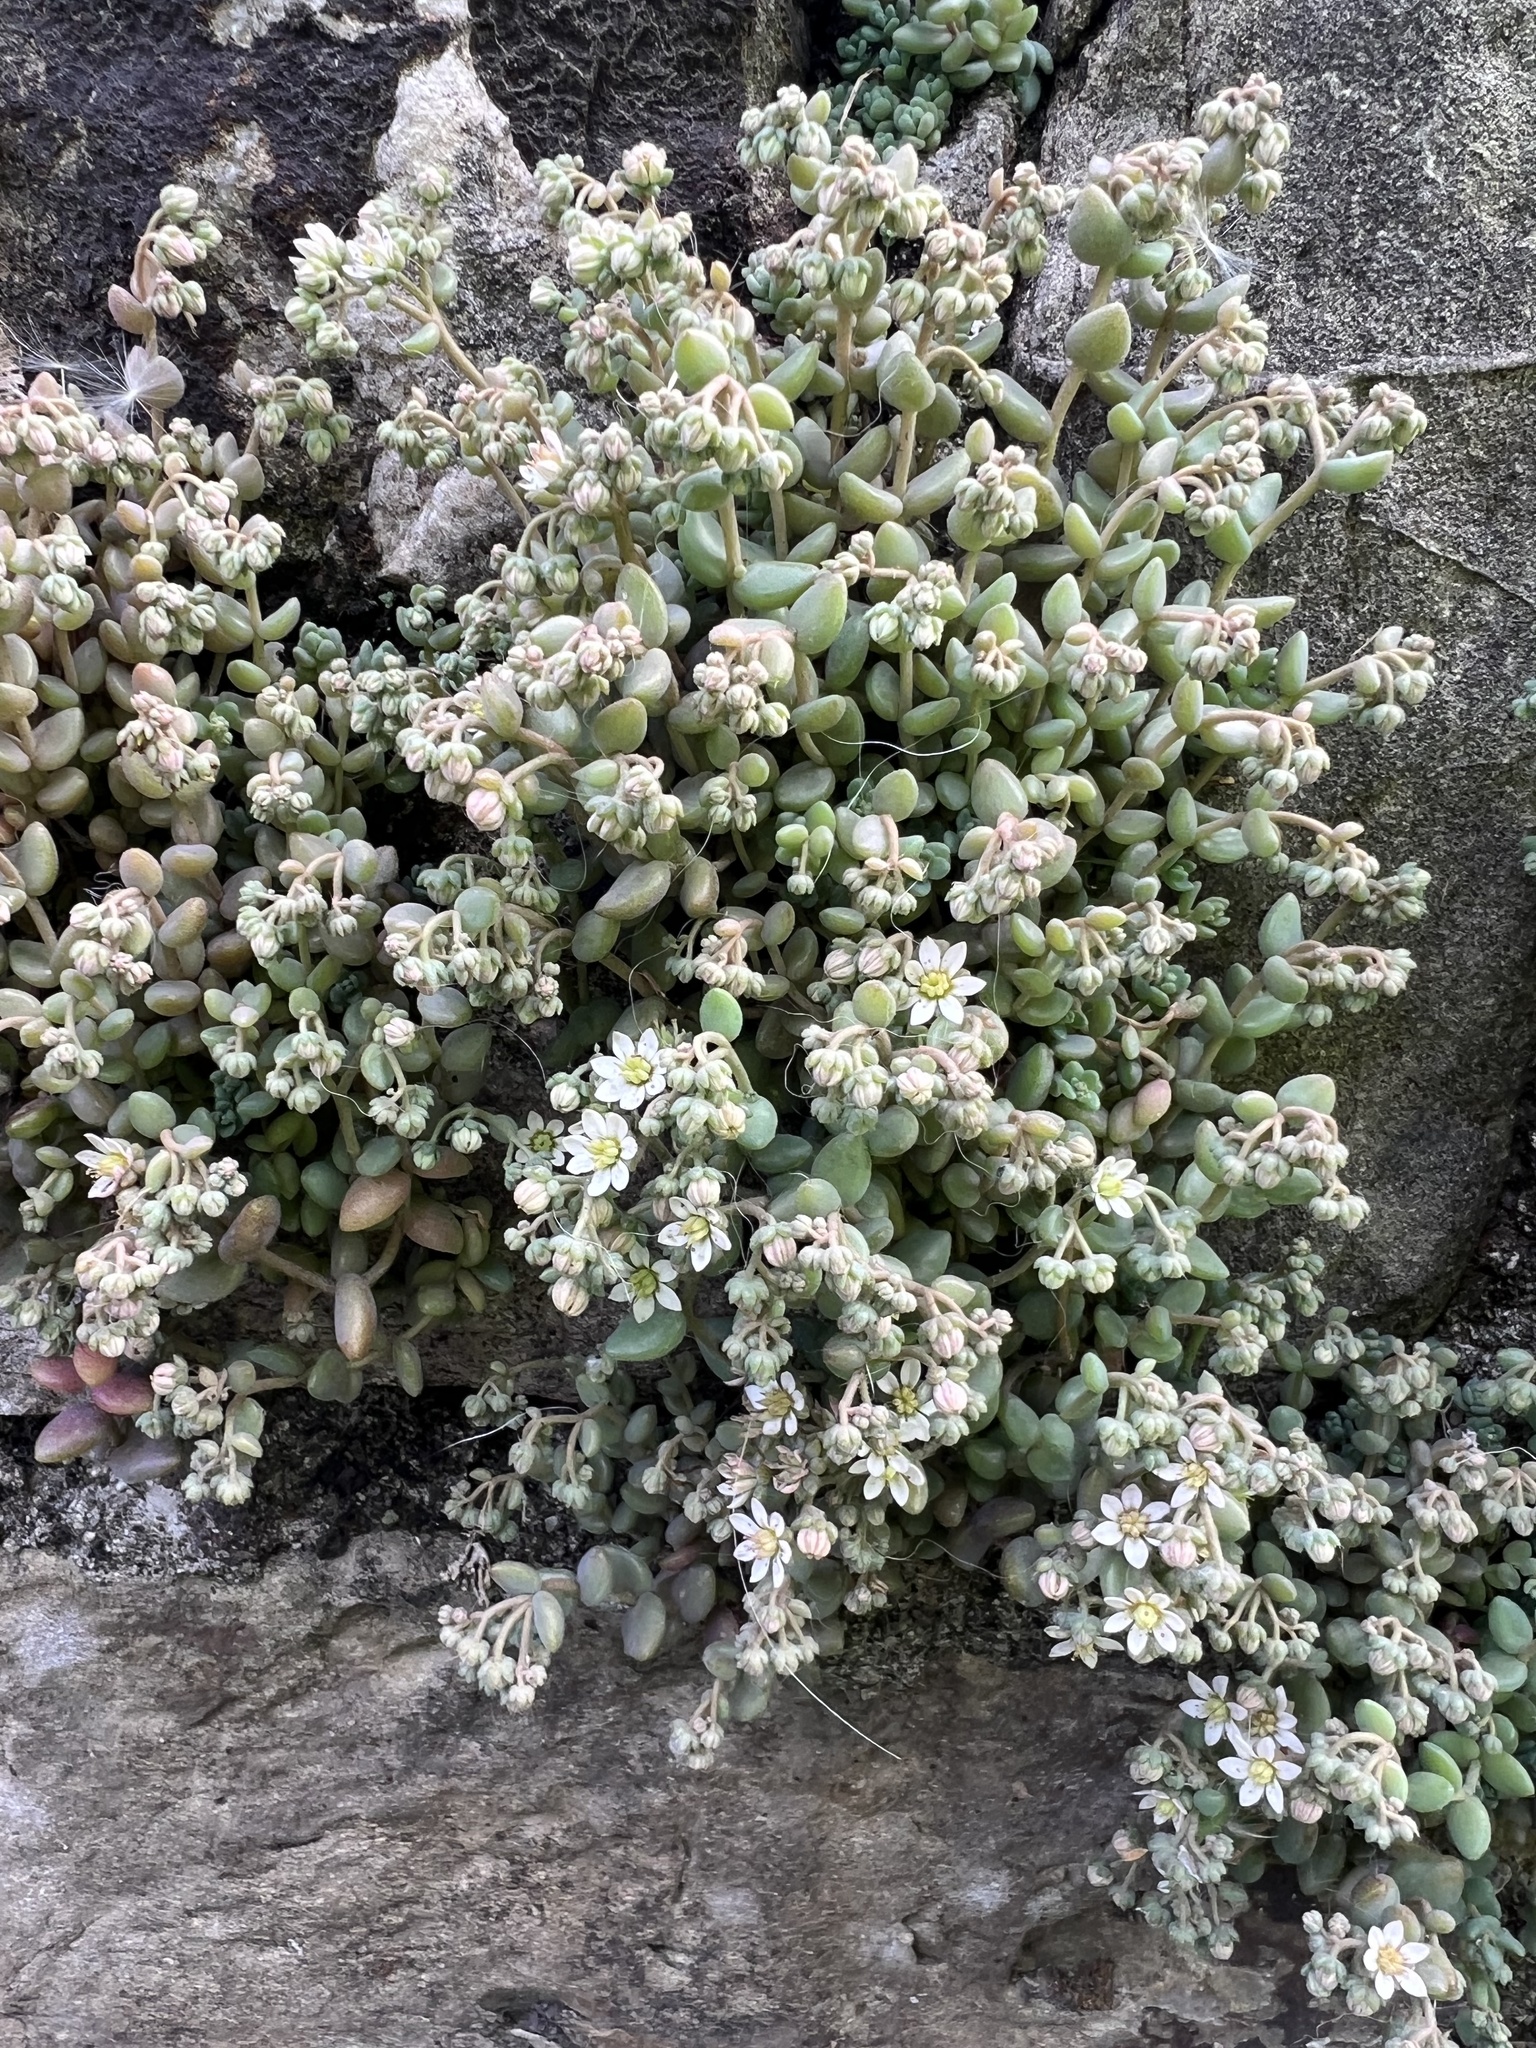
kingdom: Plantae
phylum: Tracheophyta
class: Magnoliopsida
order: Saxifragales
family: Crassulaceae
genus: Sedum
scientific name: Sedum dasyphyllum
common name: Thick-leaf stonecrop
